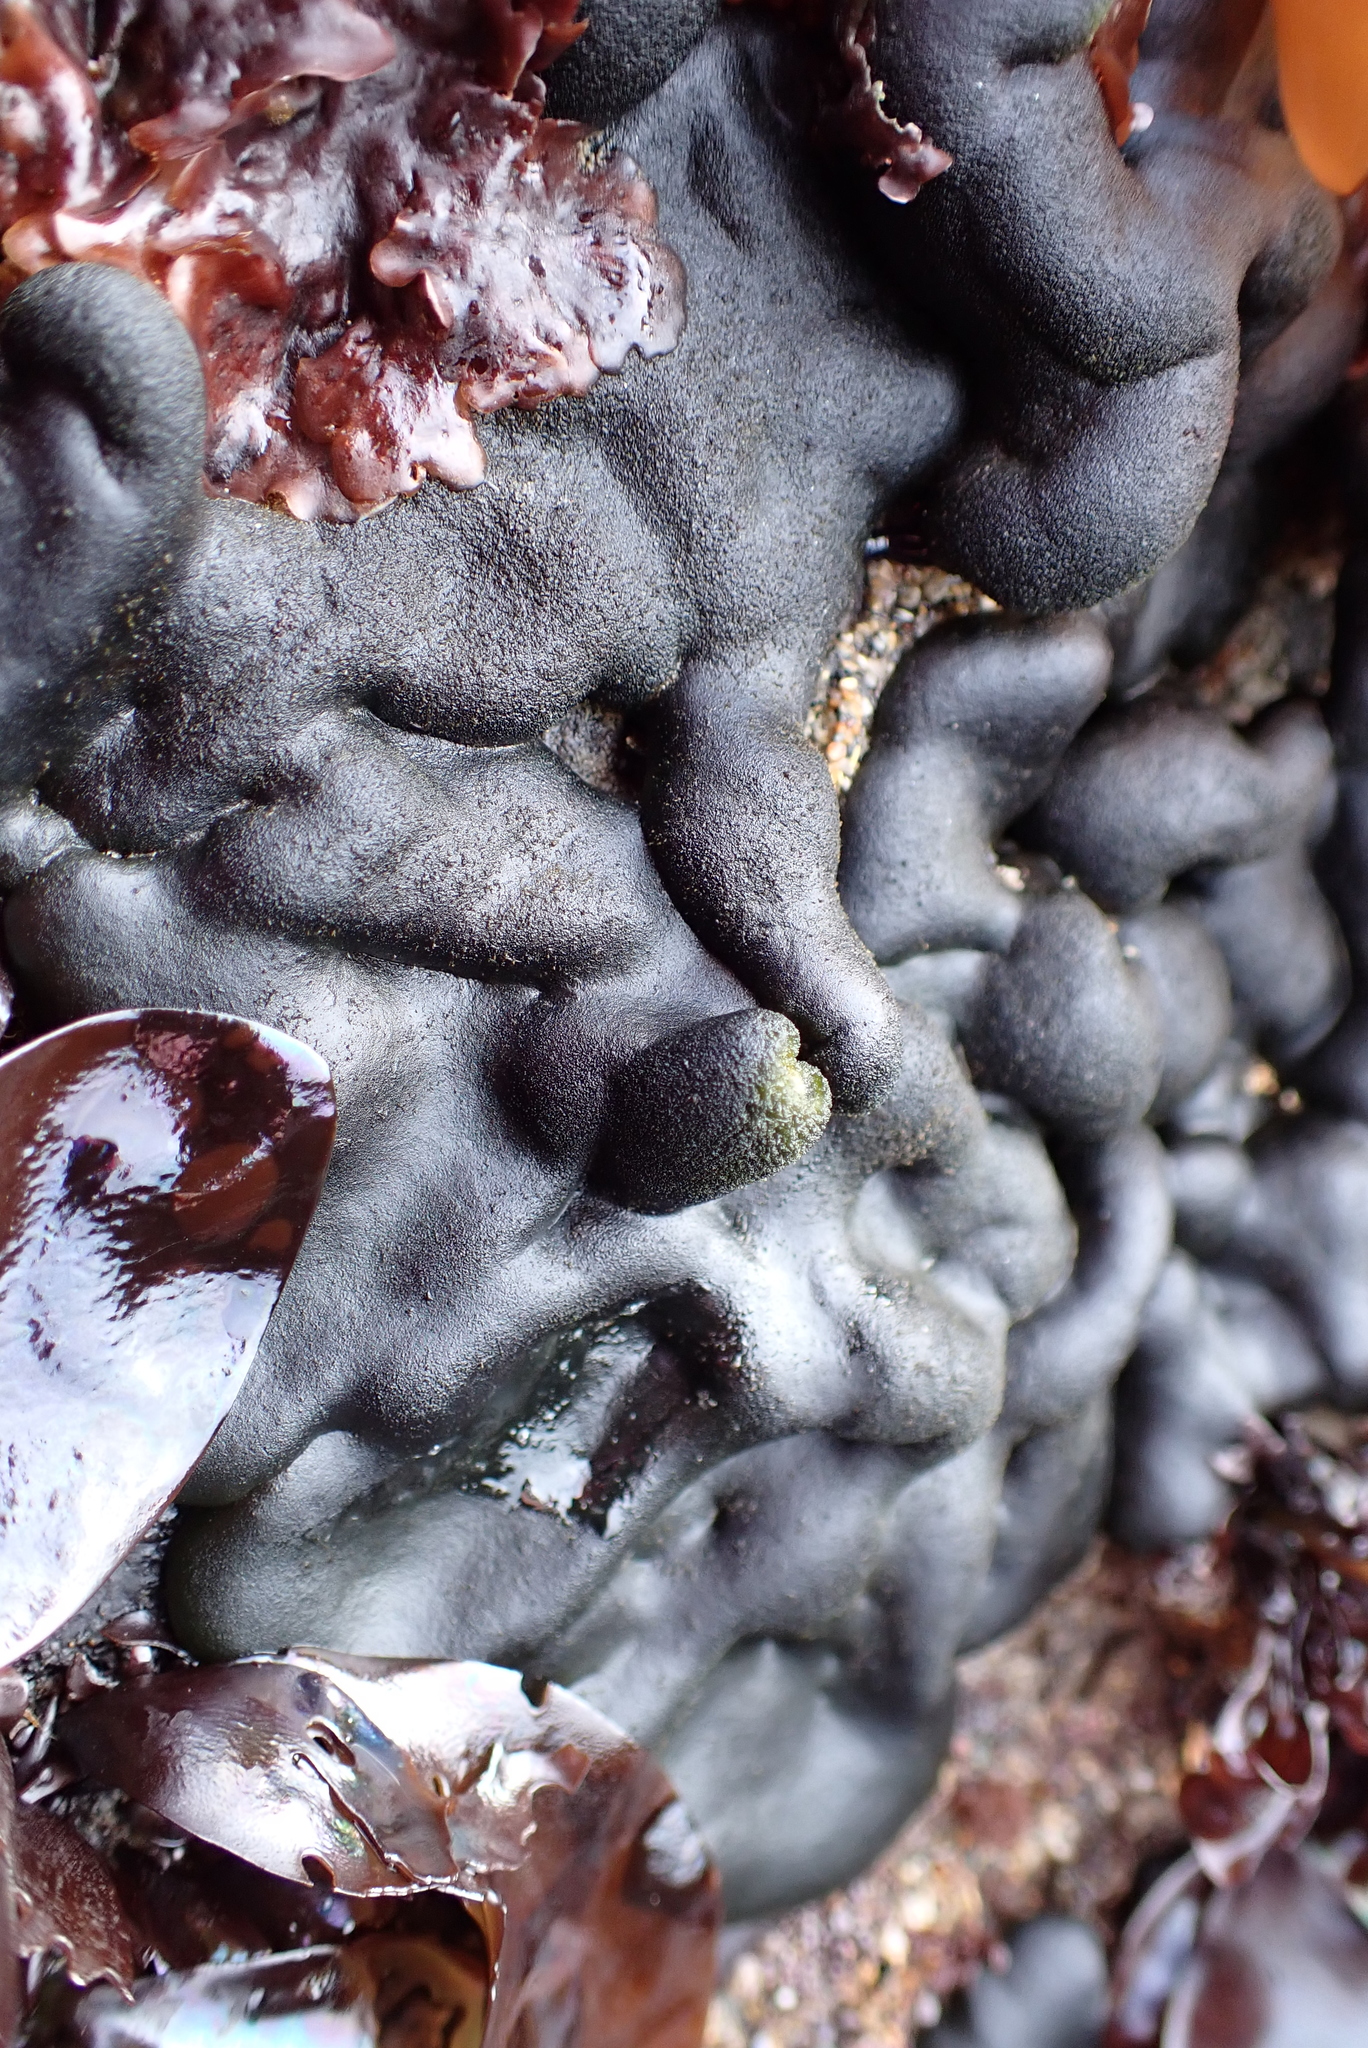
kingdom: Plantae
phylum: Chlorophyta
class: Ulvophyceae
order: Bryopsidales
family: Codiaceae
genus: Codium
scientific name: Codium setchellii
